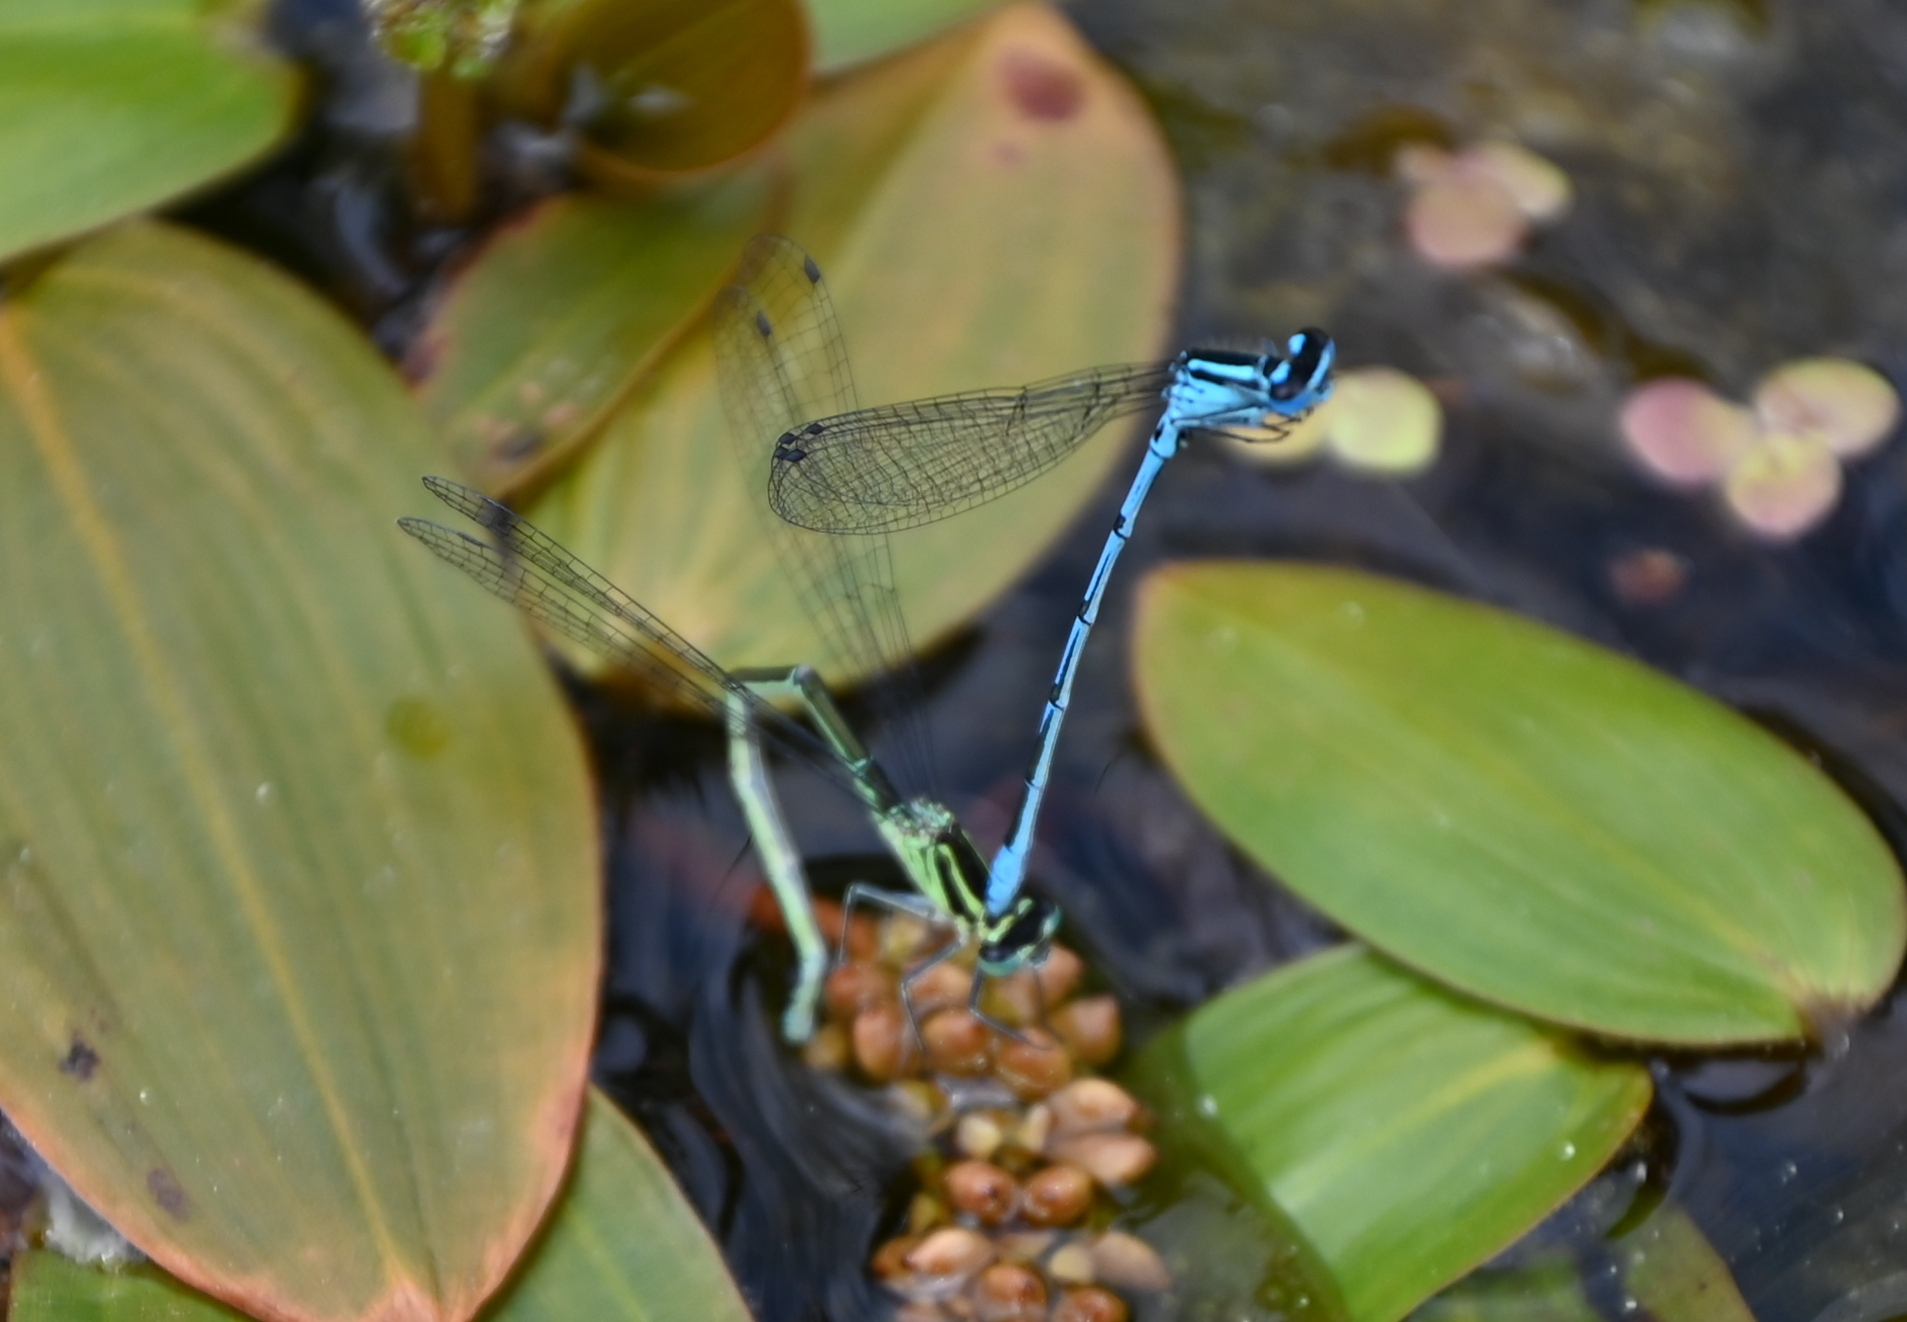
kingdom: Animalia
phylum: Arthropoda
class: Insecta
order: Odonata
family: Coenagrionidae
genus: Coenagrion
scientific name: Coenagrion puella
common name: Azure damselfly
